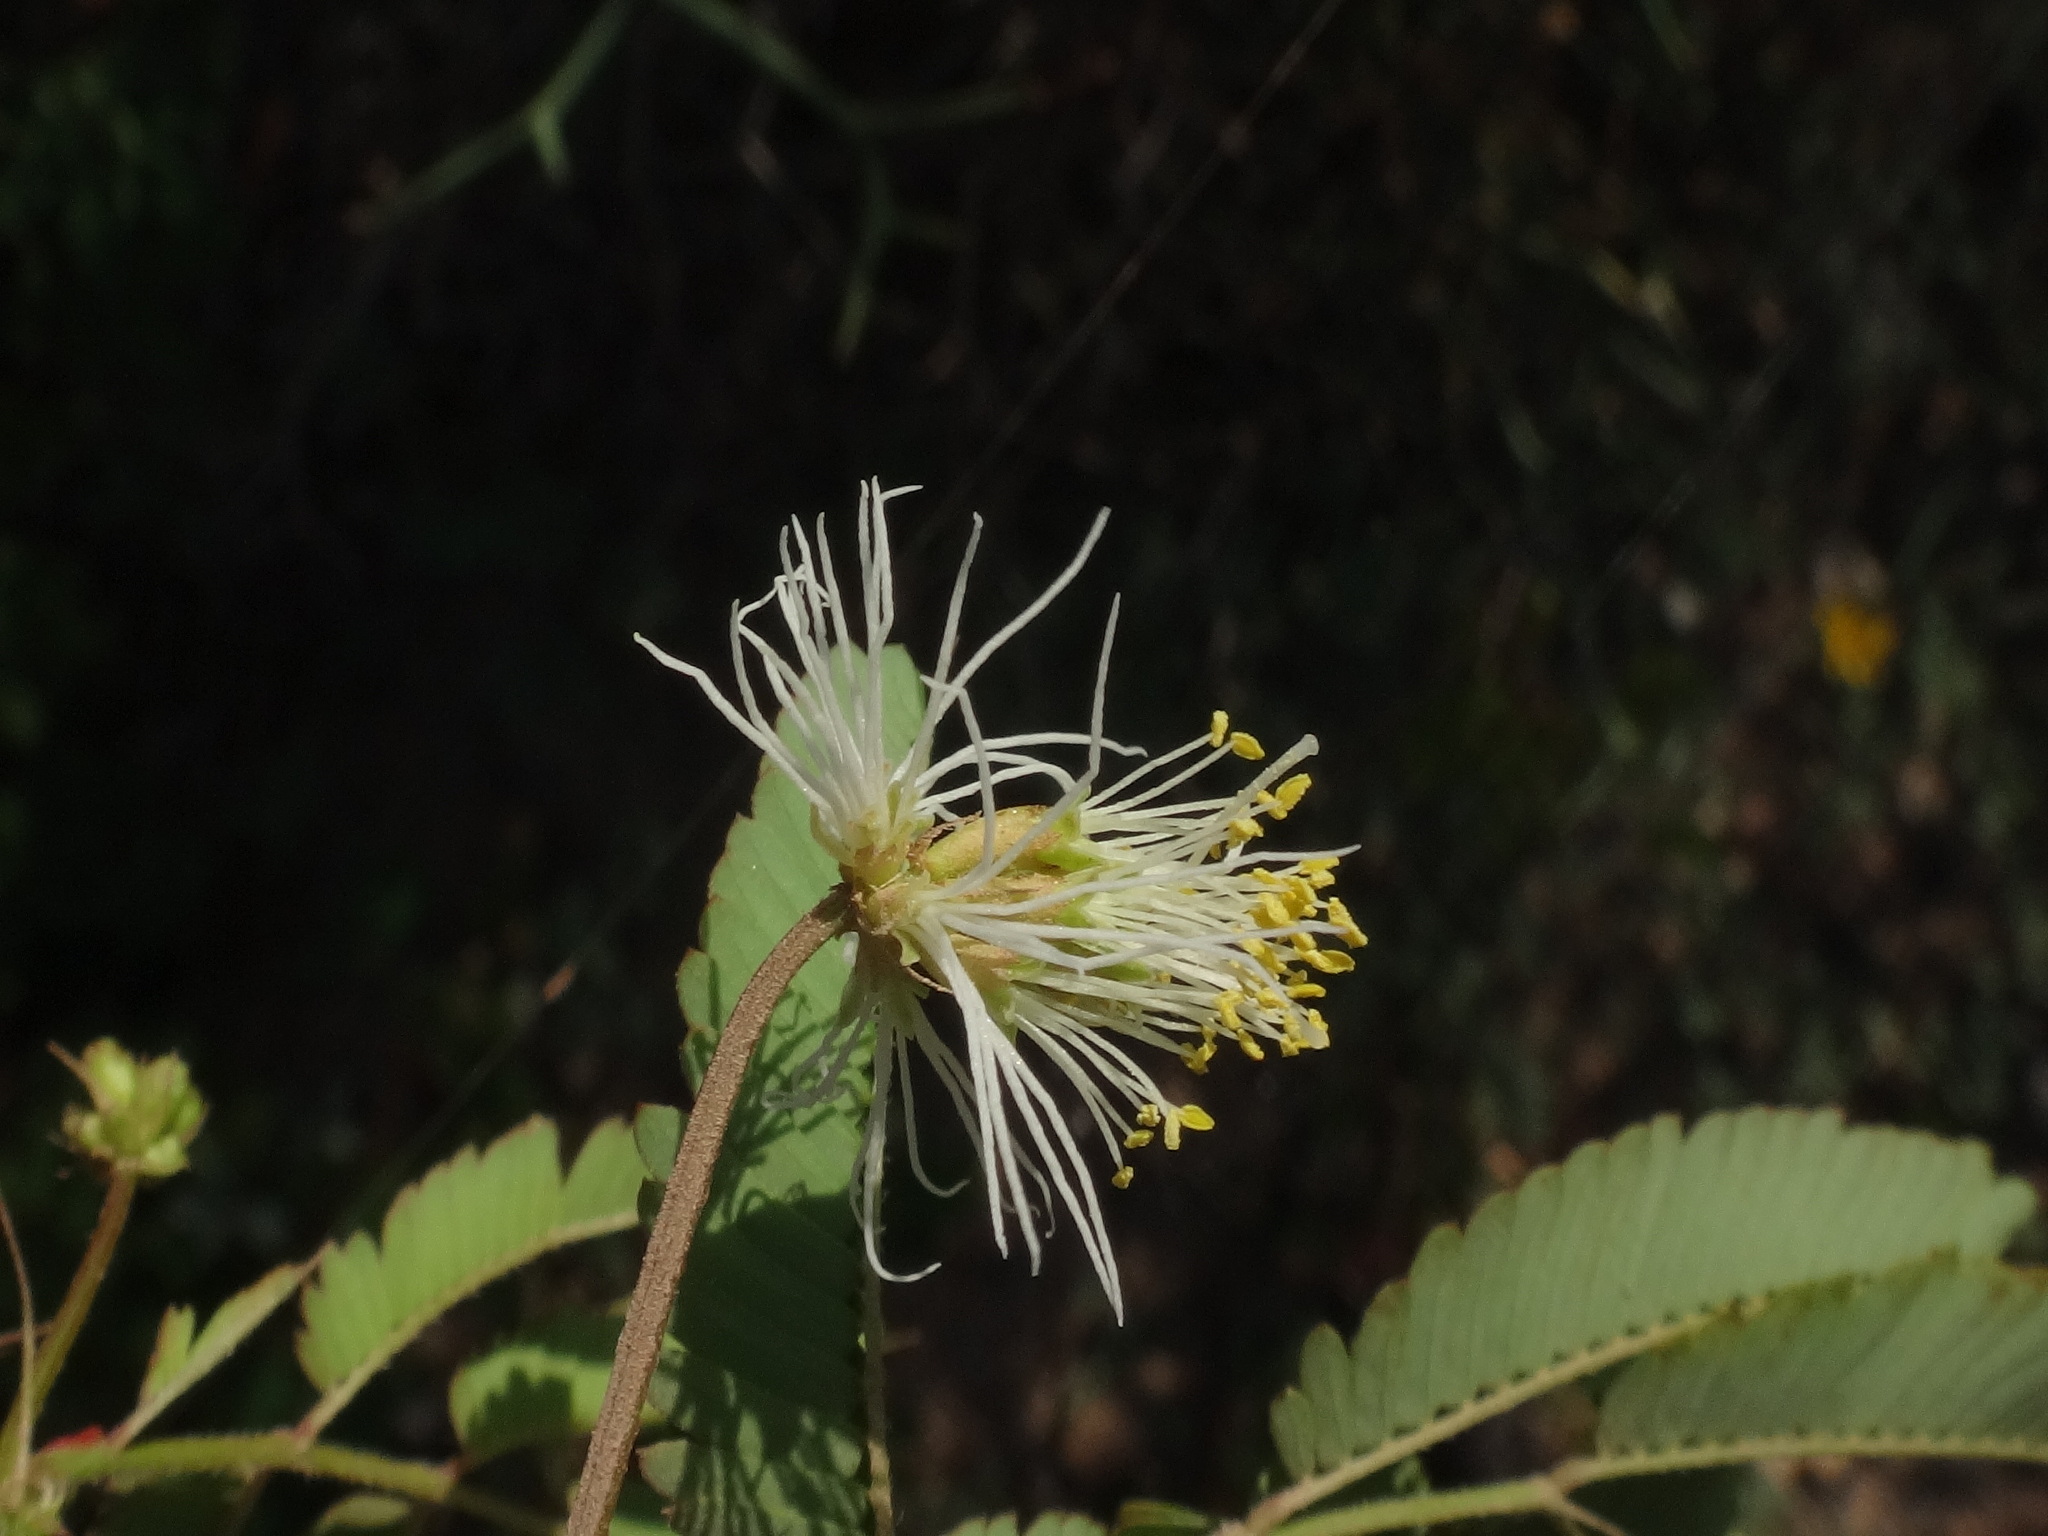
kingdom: Plantae
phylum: Tracheophyta
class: Magnoliopsida
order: Fabales
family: Fabaceae
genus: Desmanthus
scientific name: Desmanthus virgatus
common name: Wild tantan
